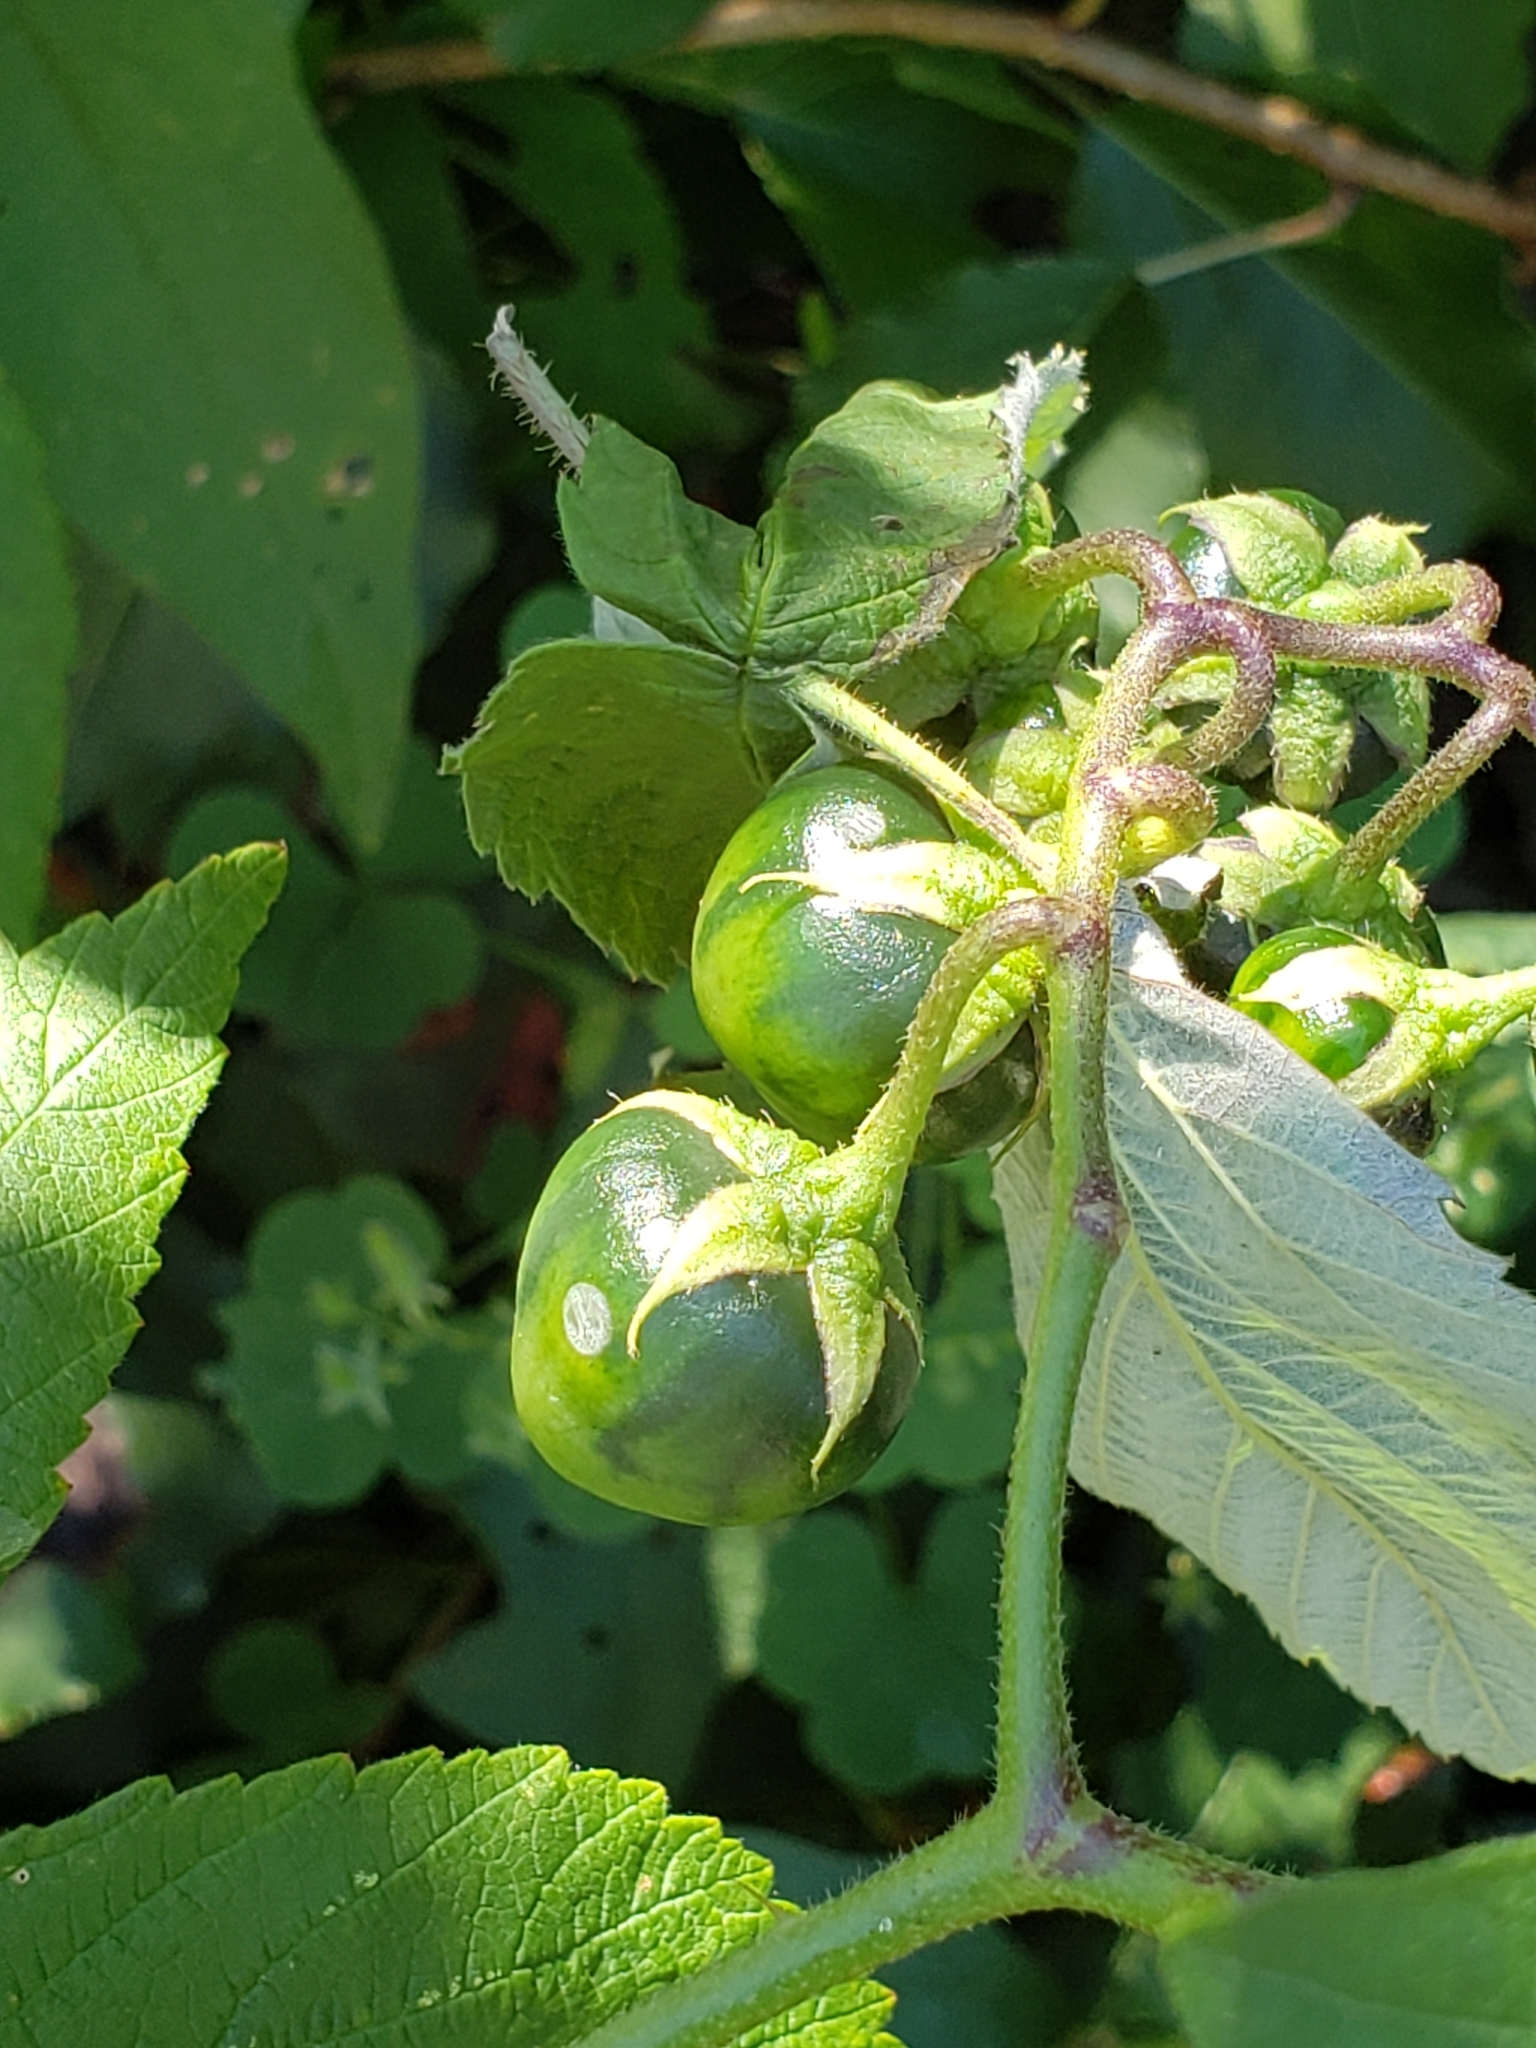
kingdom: Plantae
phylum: Tracheophyta
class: Magnoliopsida
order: Solanales
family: Solanaceae
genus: Solanum
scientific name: Solanum carolinense
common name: Horse-nettle
